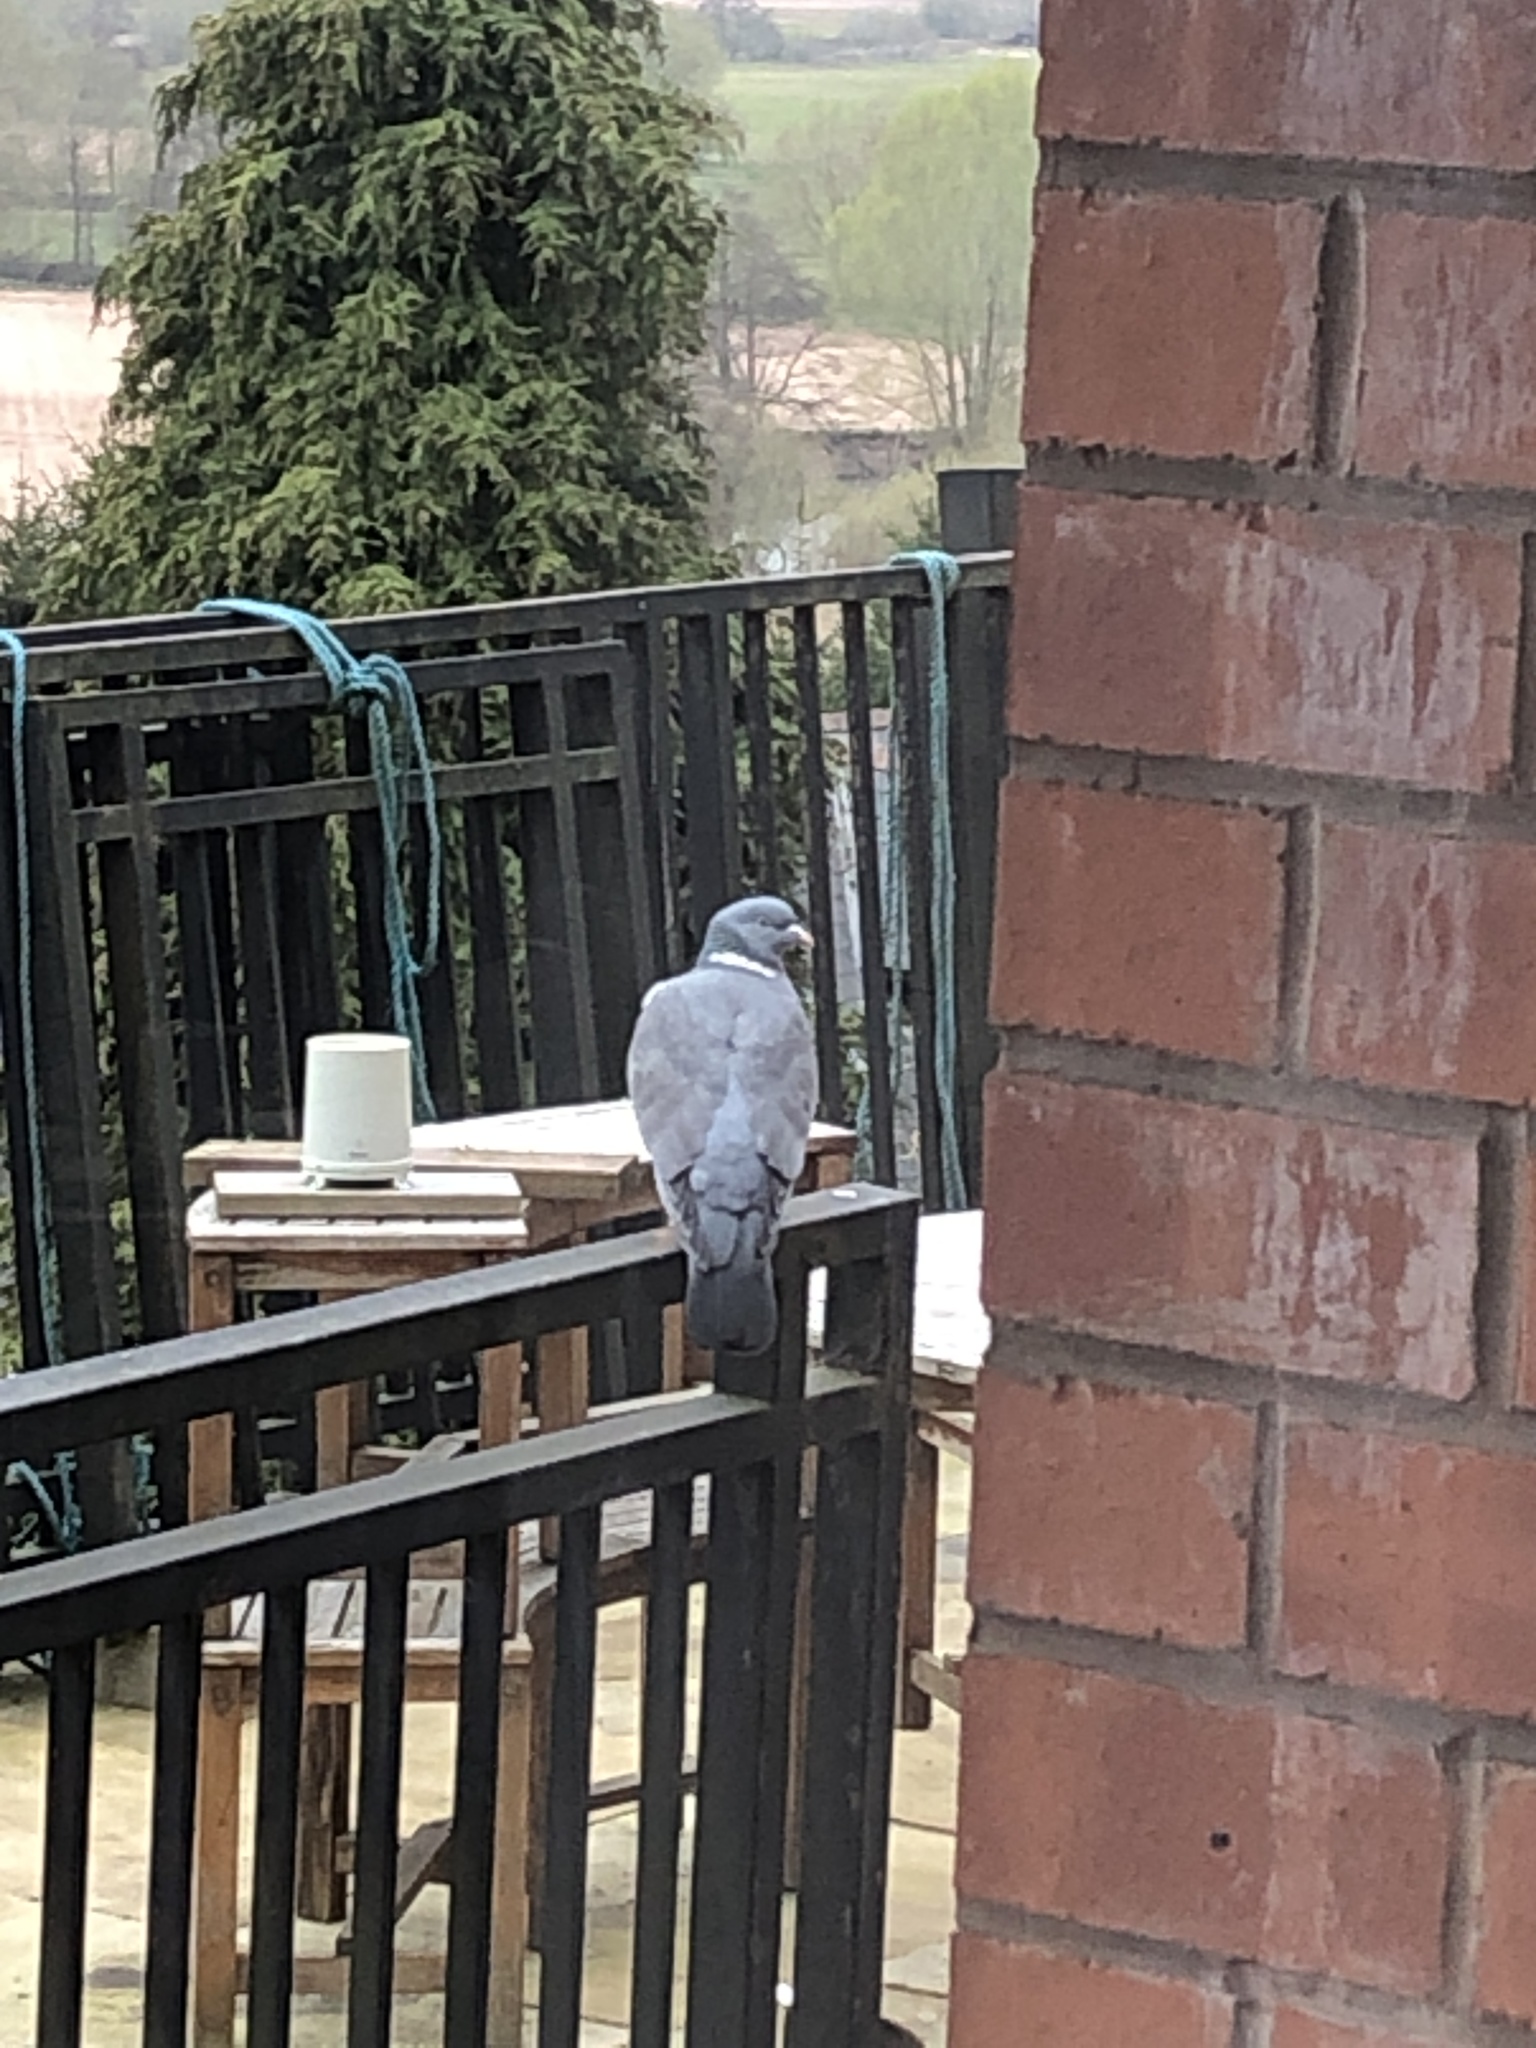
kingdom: Animalia
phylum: Chordata
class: Aves
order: Columbiformes
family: Columbidae
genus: Columba
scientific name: Columba palumbus
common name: Common wood pigeon
